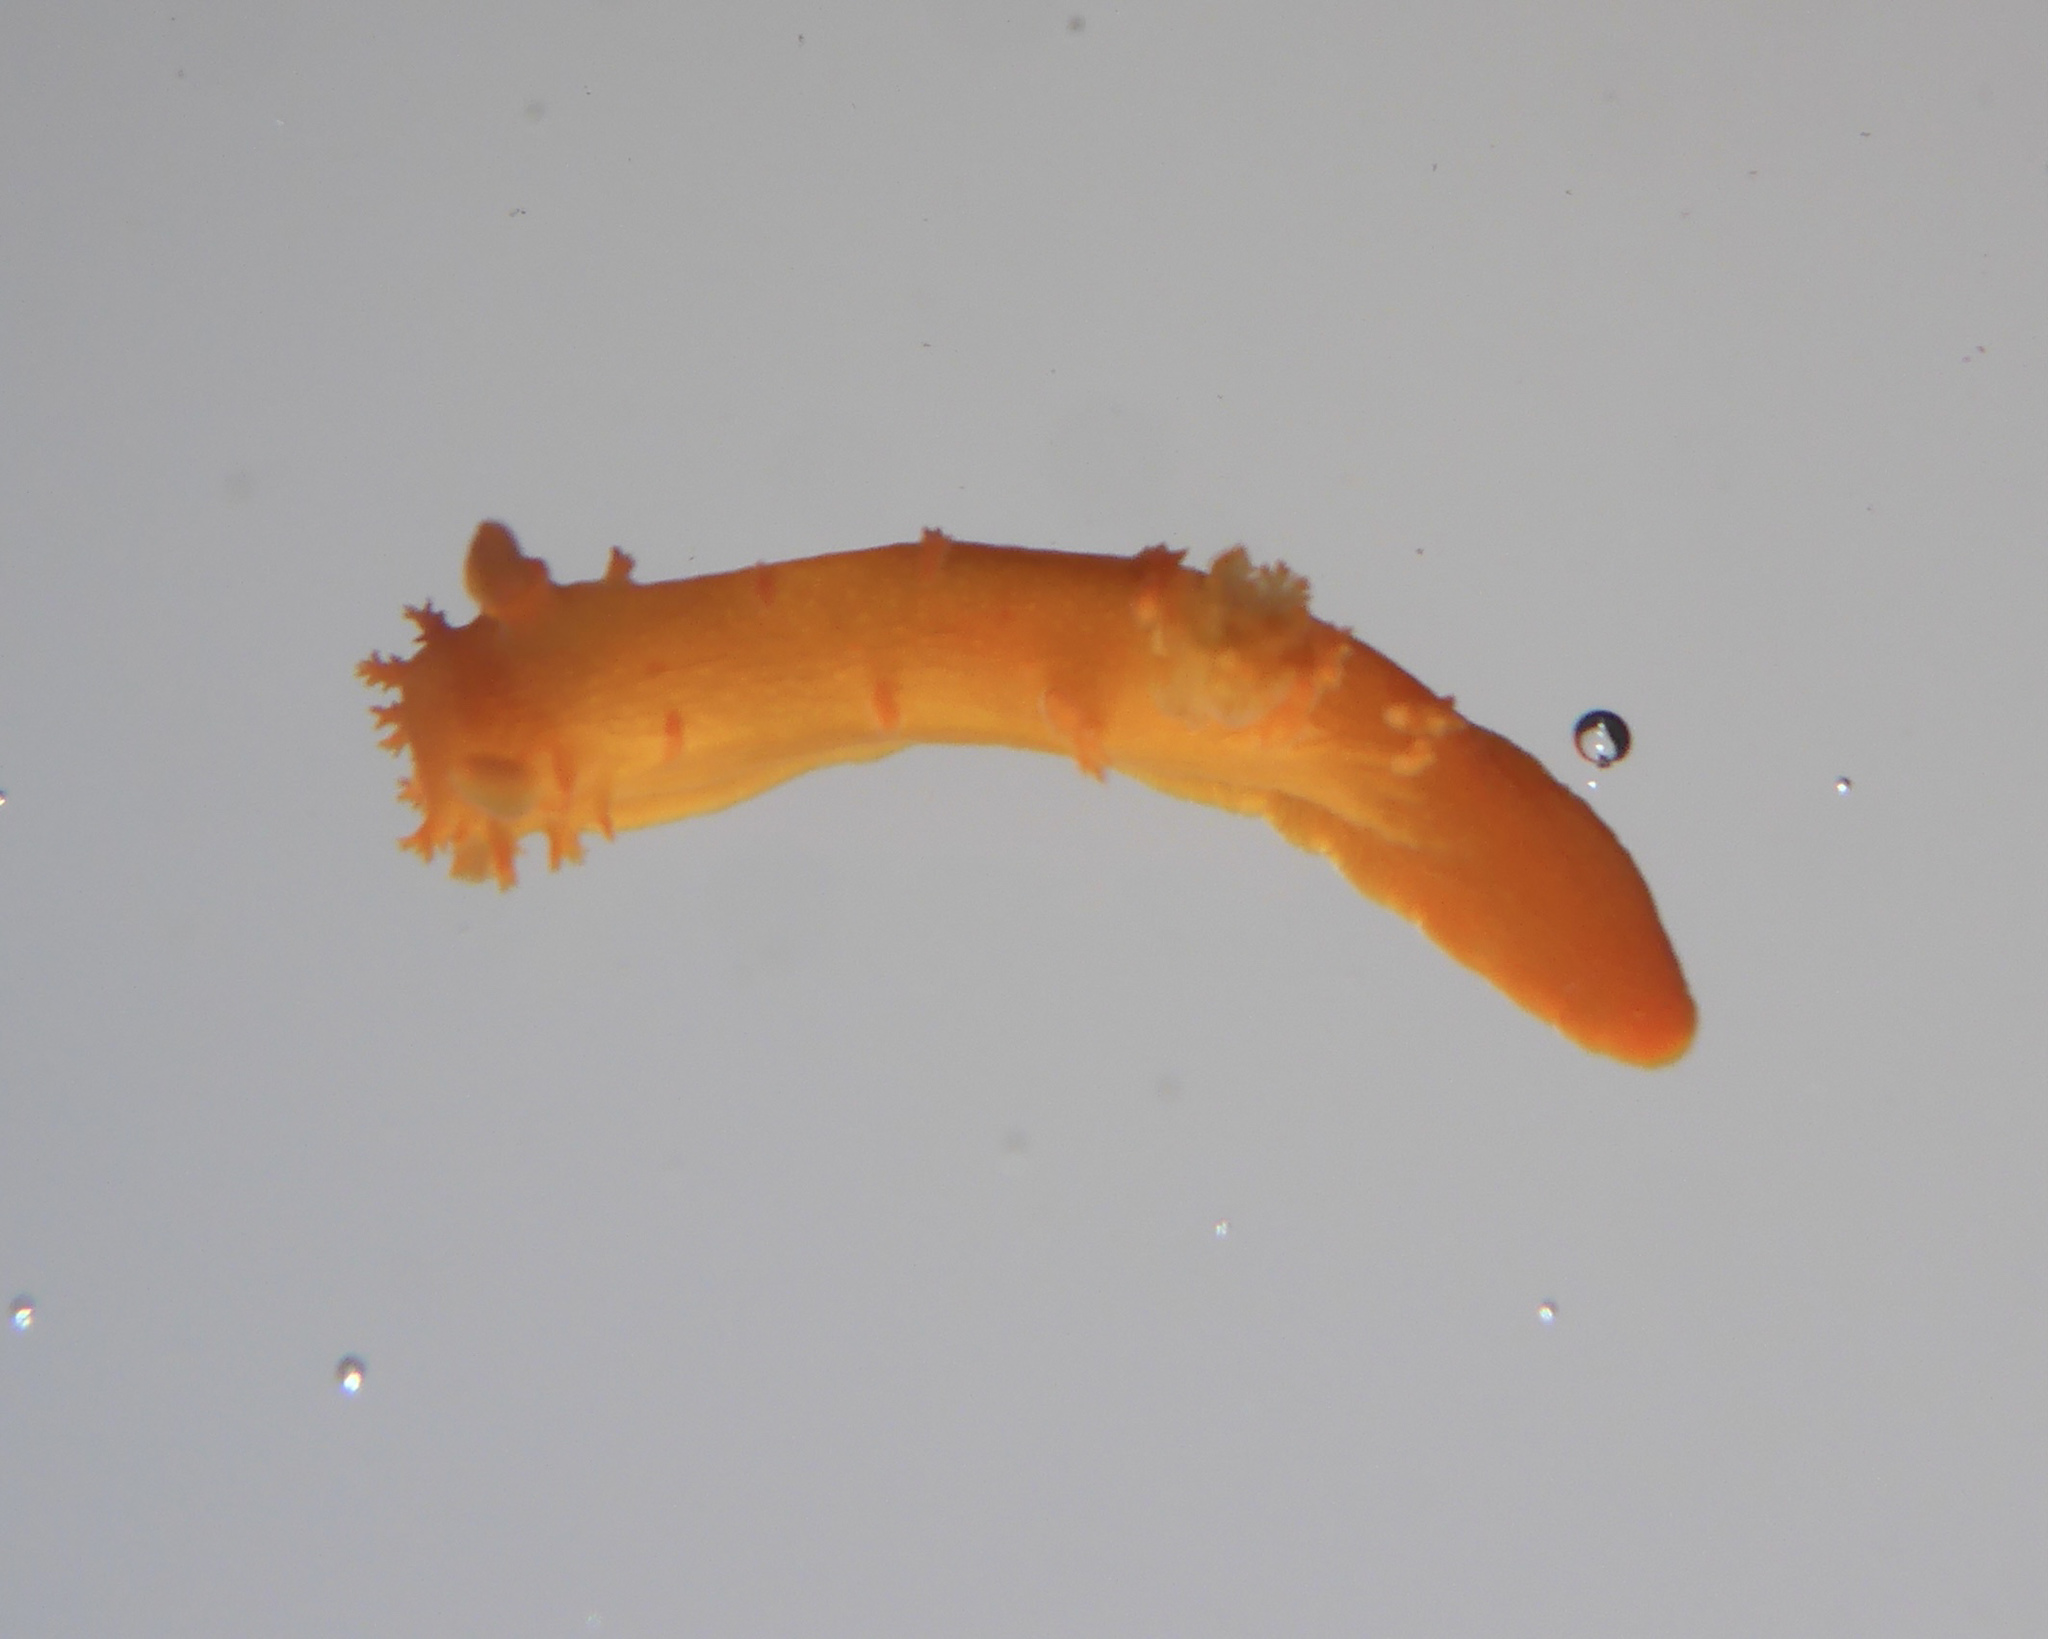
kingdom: Animalia
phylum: Mollusca
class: Gastropoda
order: Nudibranchia
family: Polyceridae
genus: Triopha
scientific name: Triopha maculata
